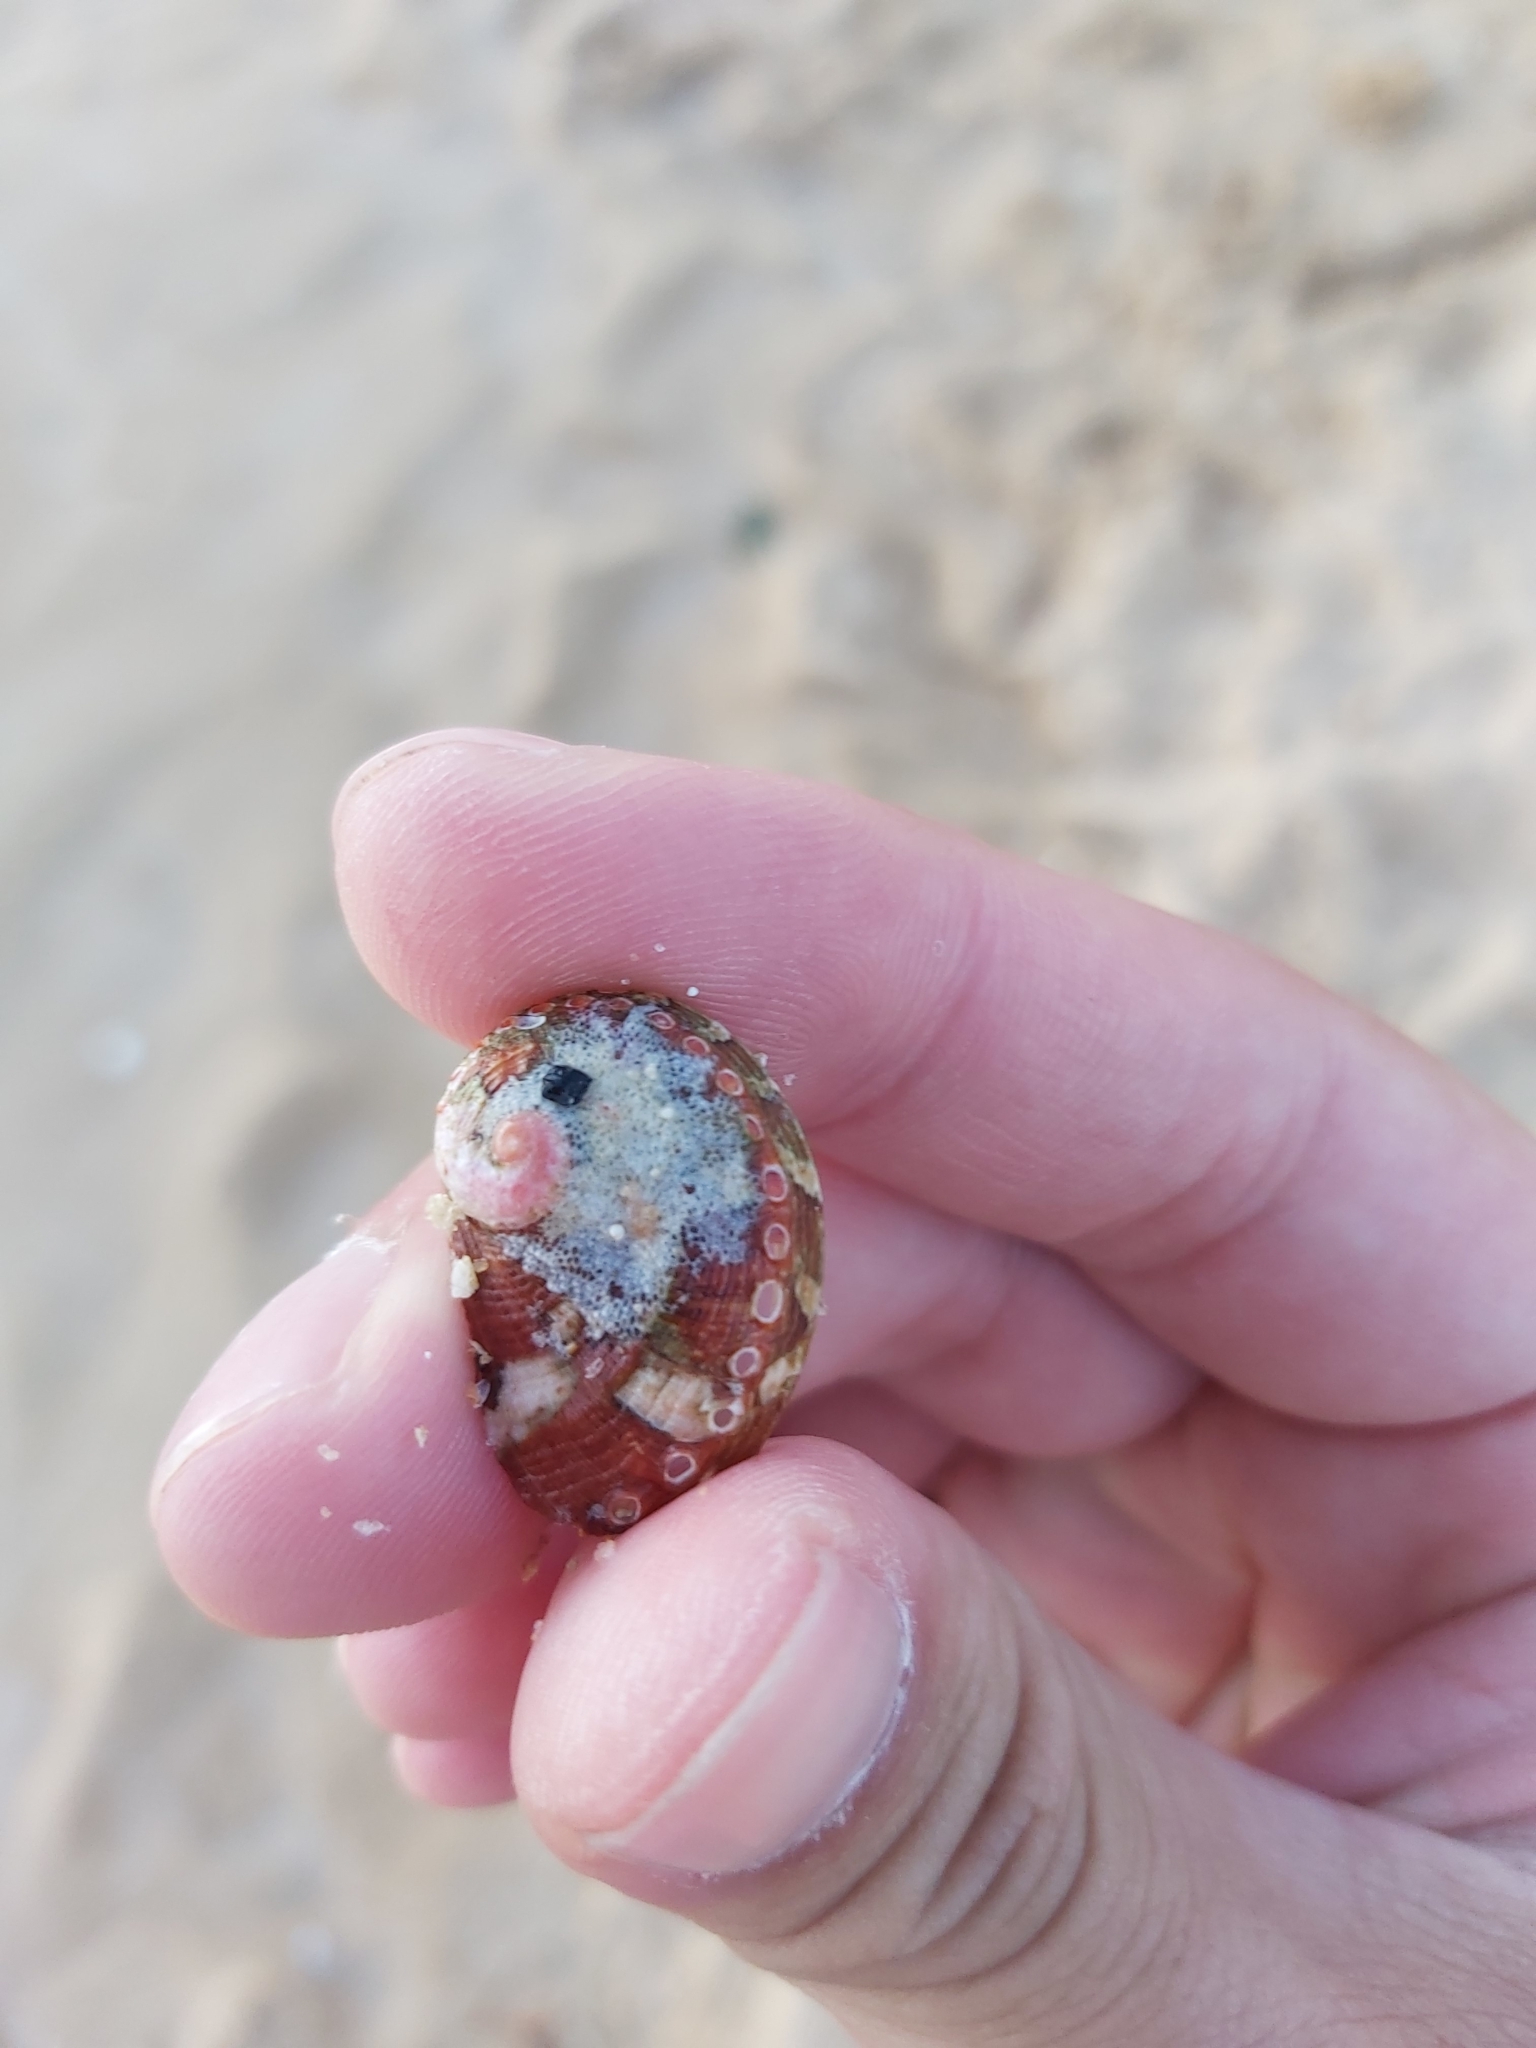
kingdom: Animalia
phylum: Mollusca
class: Gastropoda
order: Lepetellida
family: Haliotidae
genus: Haliotis
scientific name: Haliotis coccoradiata
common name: Reddish-rayed abalone
